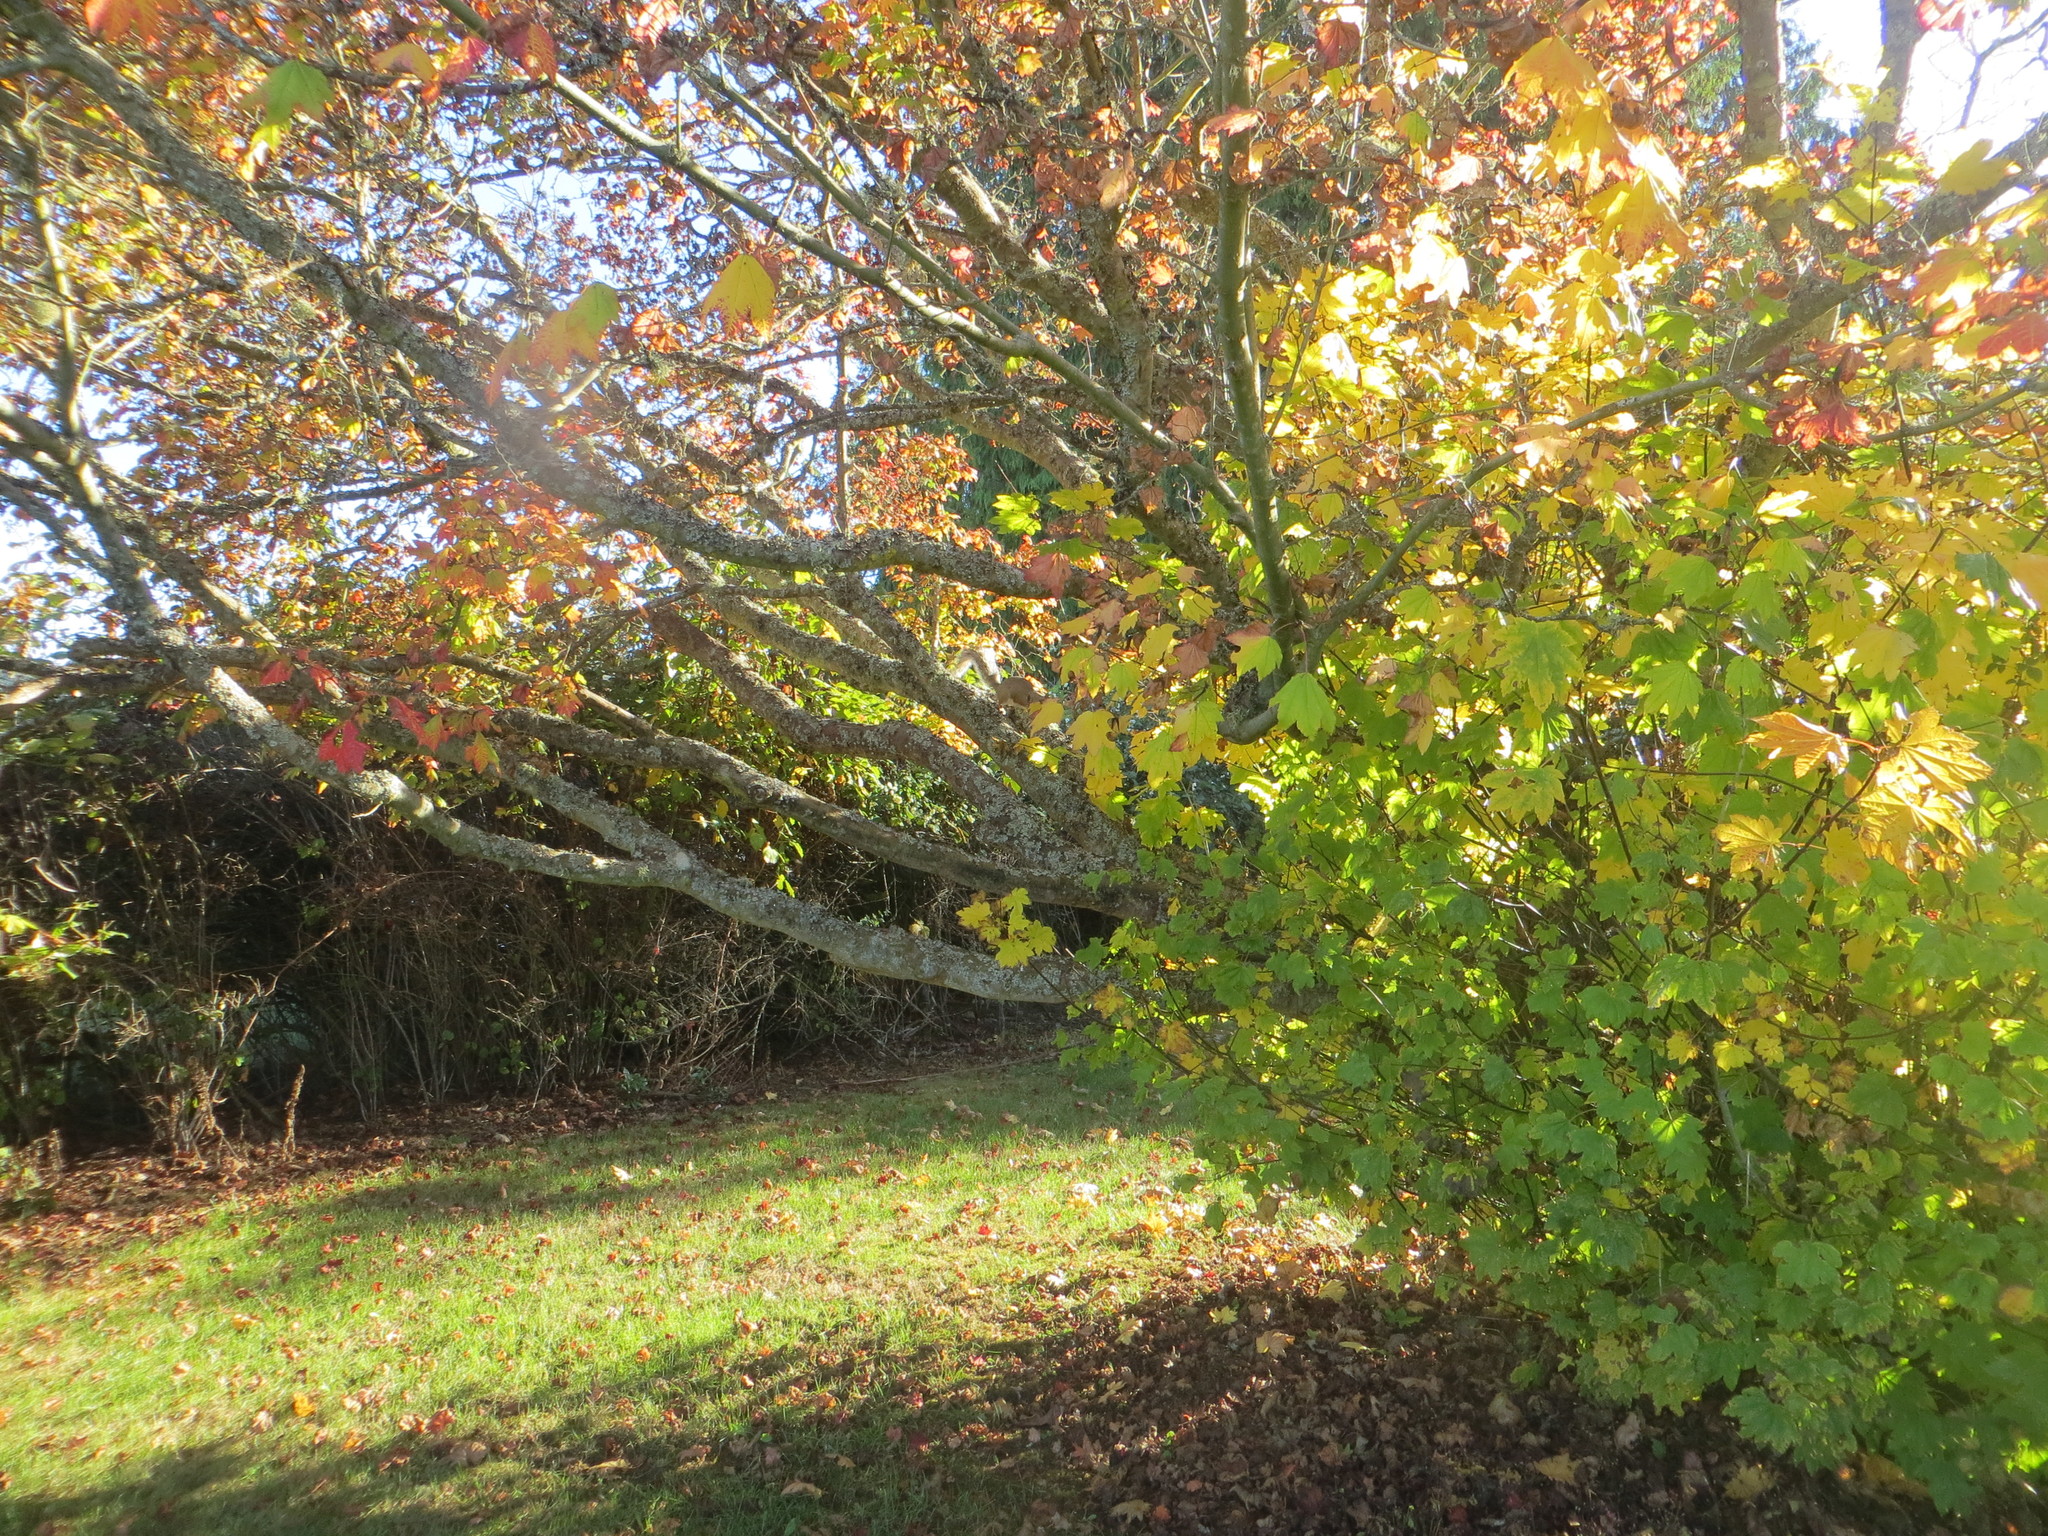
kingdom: Plantae
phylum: Tracheophyta
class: Magnoliopsida
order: Sapindales
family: Sapindaceae
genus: Acer
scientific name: Acer circinatum
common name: Vine maple
